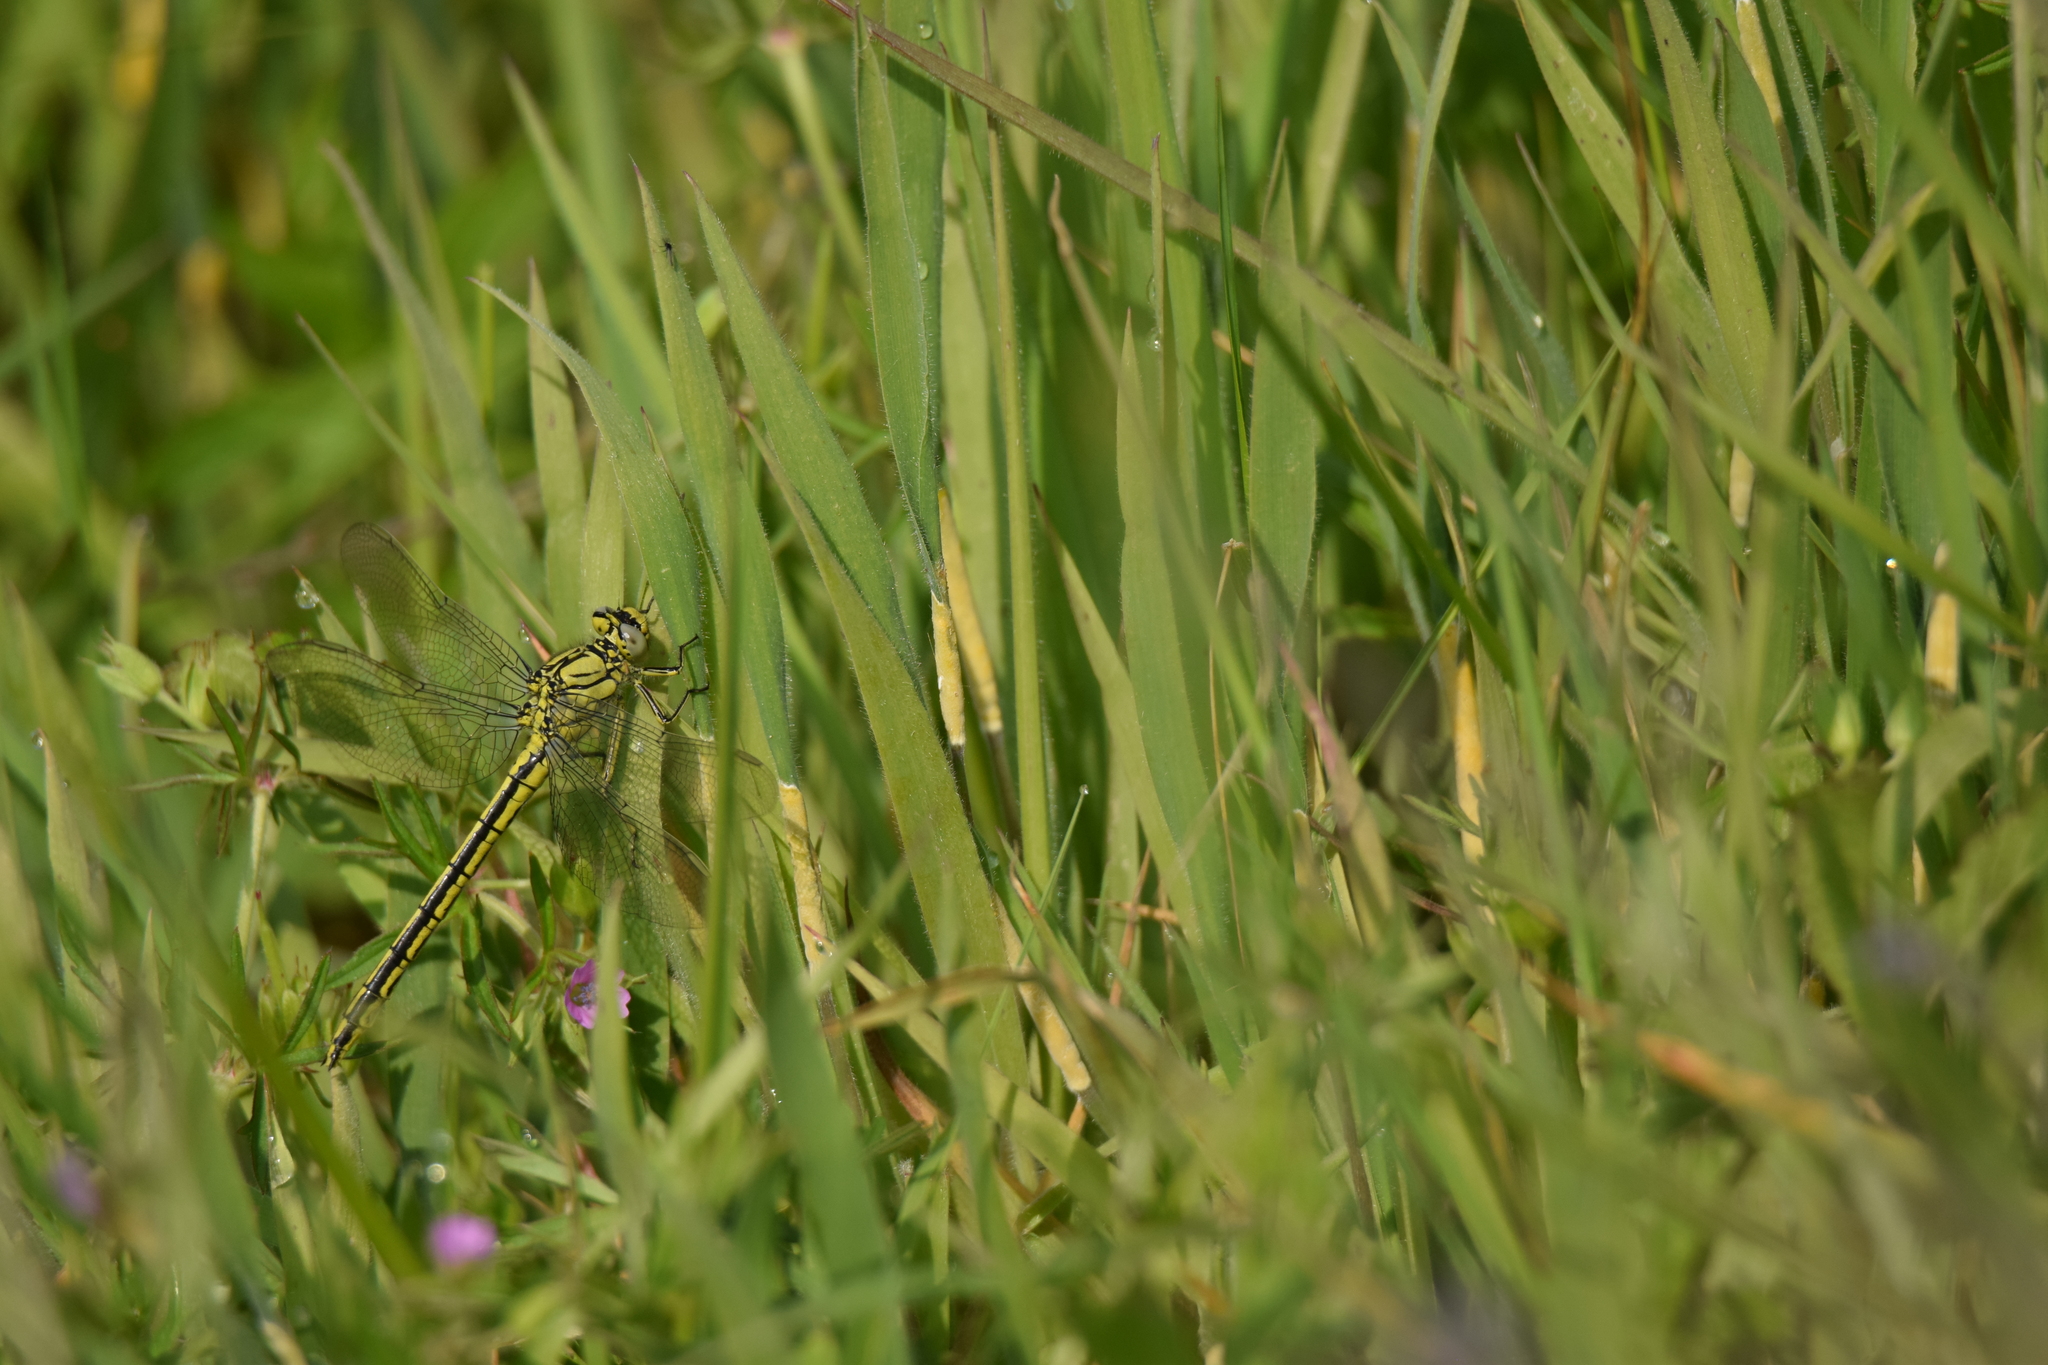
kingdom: Animalia
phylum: Arthropoda
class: Insecta
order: Odonata
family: Gomphidae
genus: Gomphus
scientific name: Gomphus pulchellus
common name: Western clubtail
